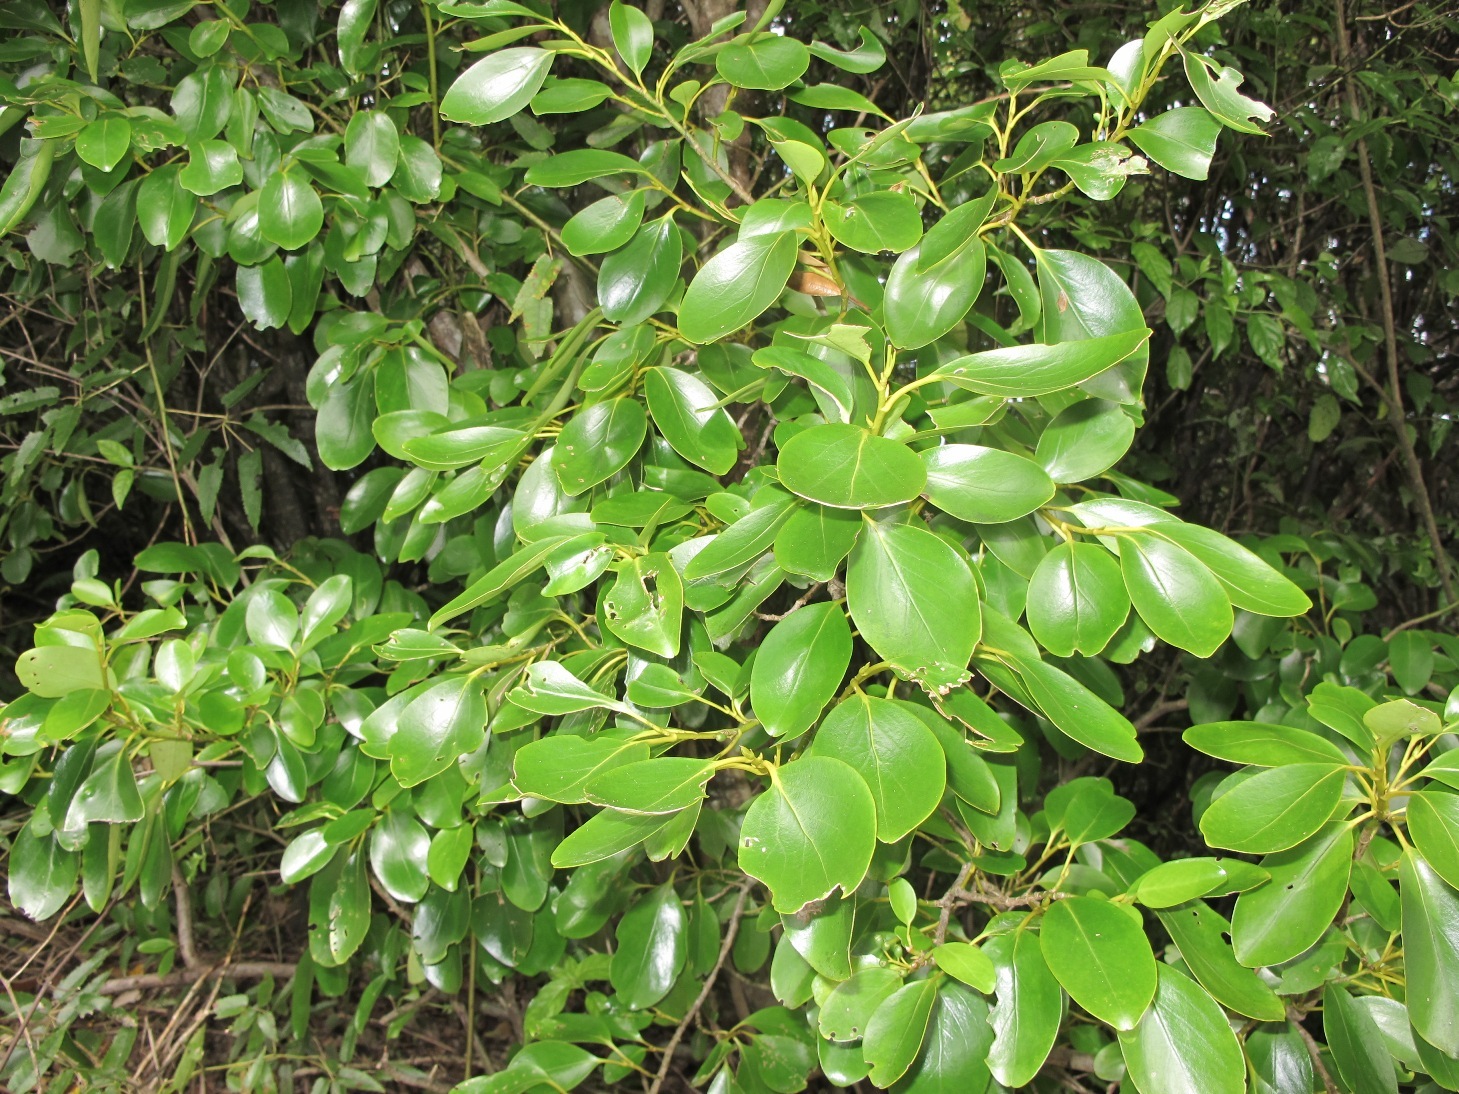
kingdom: Plantae
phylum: Tracheophyta
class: Magnoliopsida
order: Apiales
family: Griseliniaceae
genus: Griselinia
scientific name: Griselinia littoralis
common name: New zealand broadleaf
